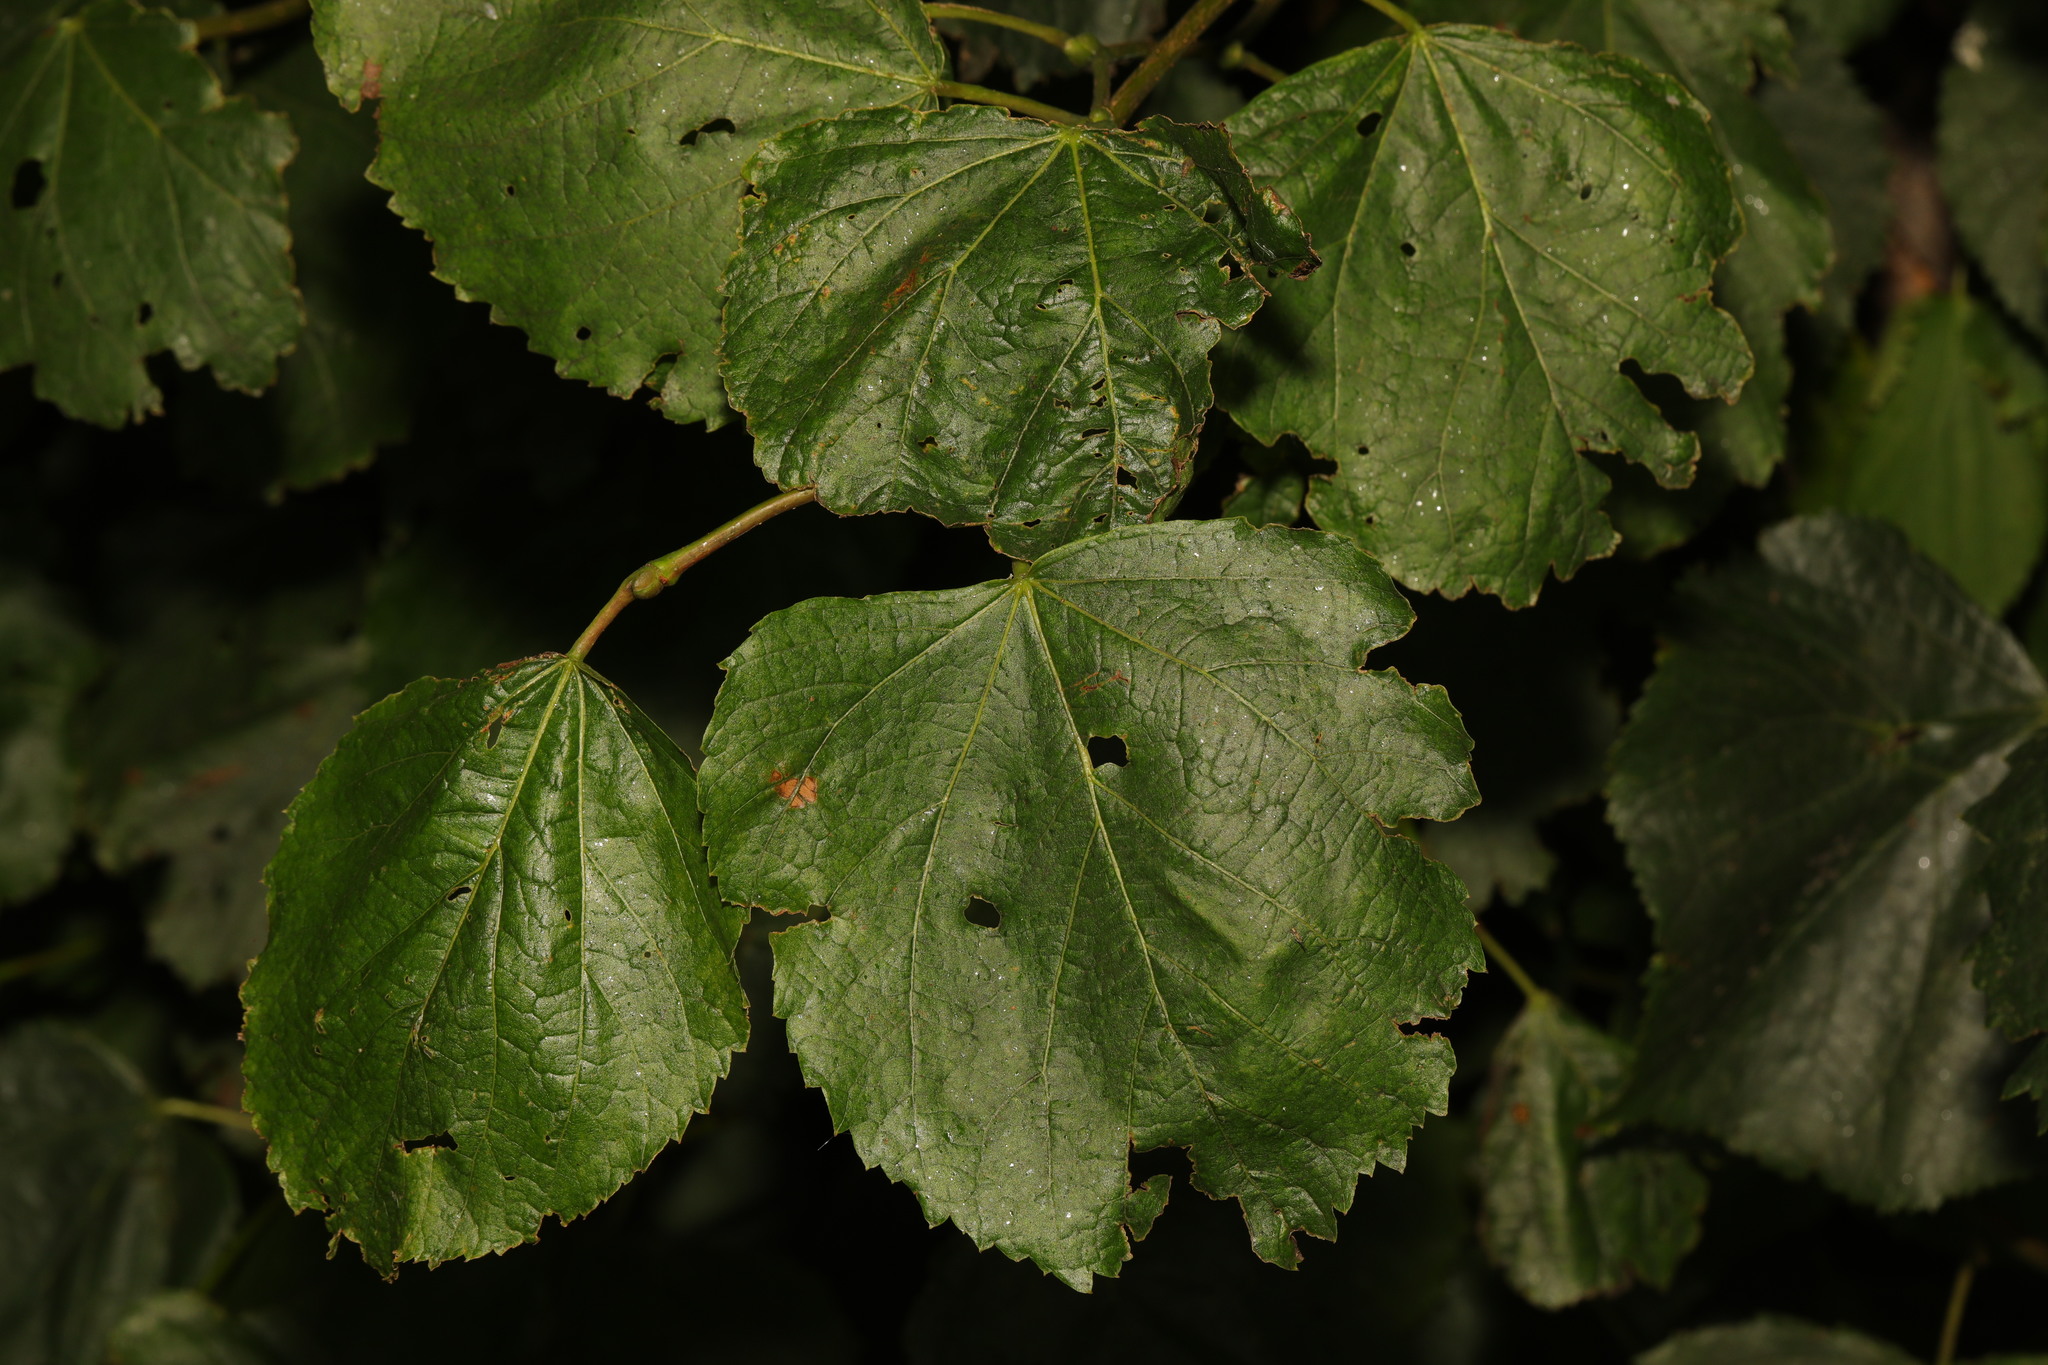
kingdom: Plantae
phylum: Tracheophyta
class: Magnoliopsida
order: Malvales
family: Malvaceae
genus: Tilia
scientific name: Tilia europaea
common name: European linden
